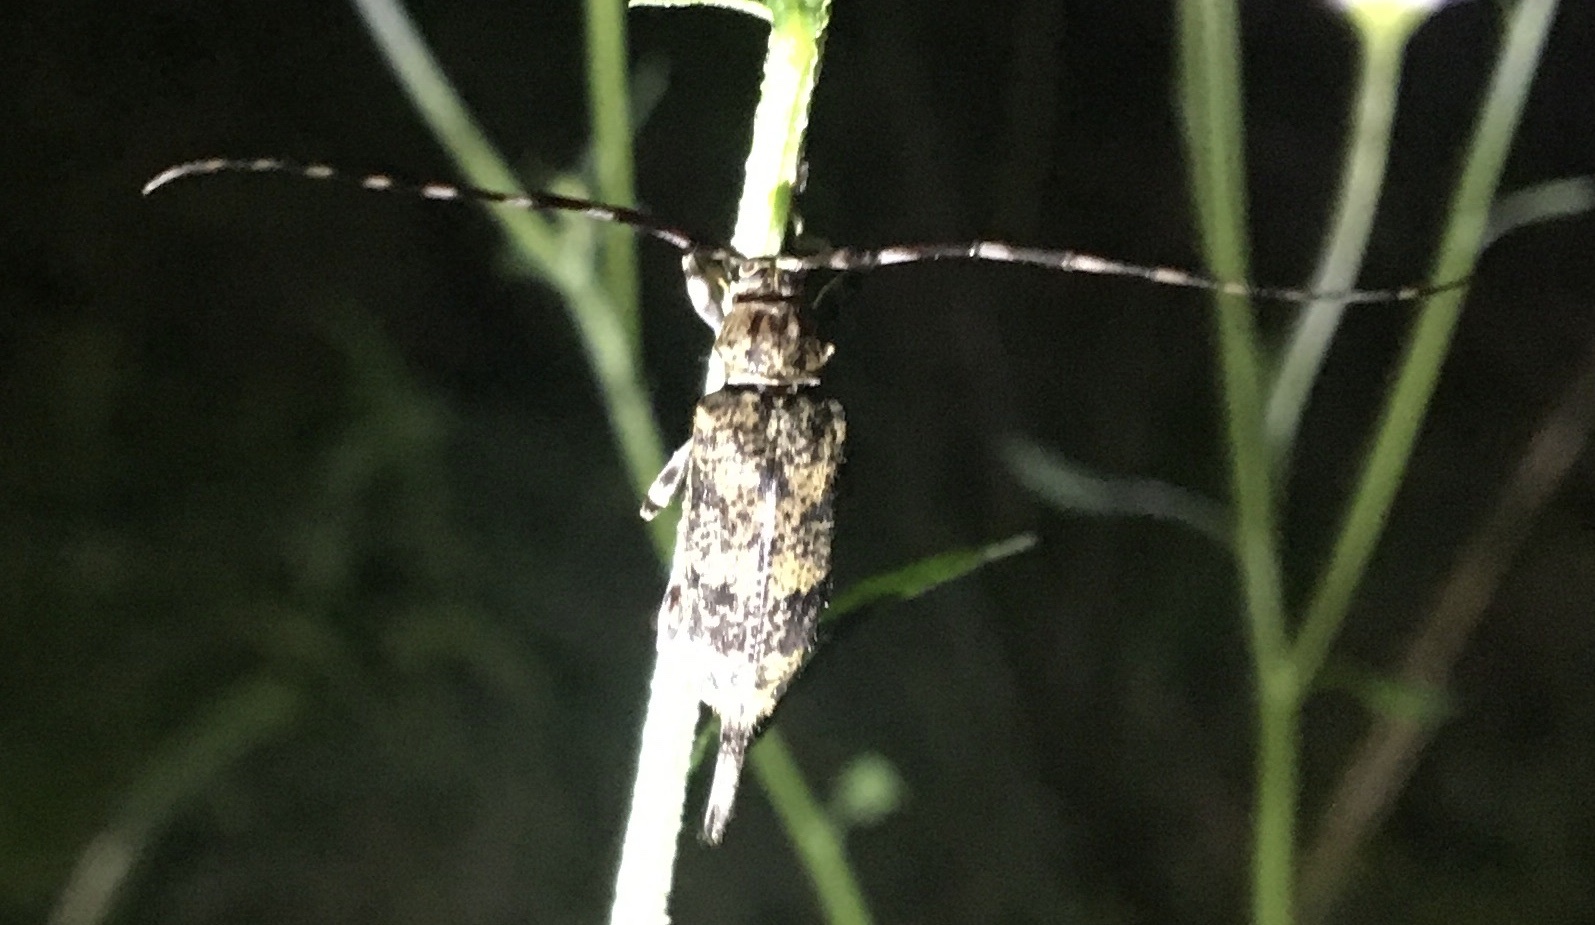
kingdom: Animalia
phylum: Arthropoda
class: Insecta
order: Coleoptera
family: Cerambycidae
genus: Graphisurus
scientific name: Graphisurus fasciatus
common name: Banded graphisurus
